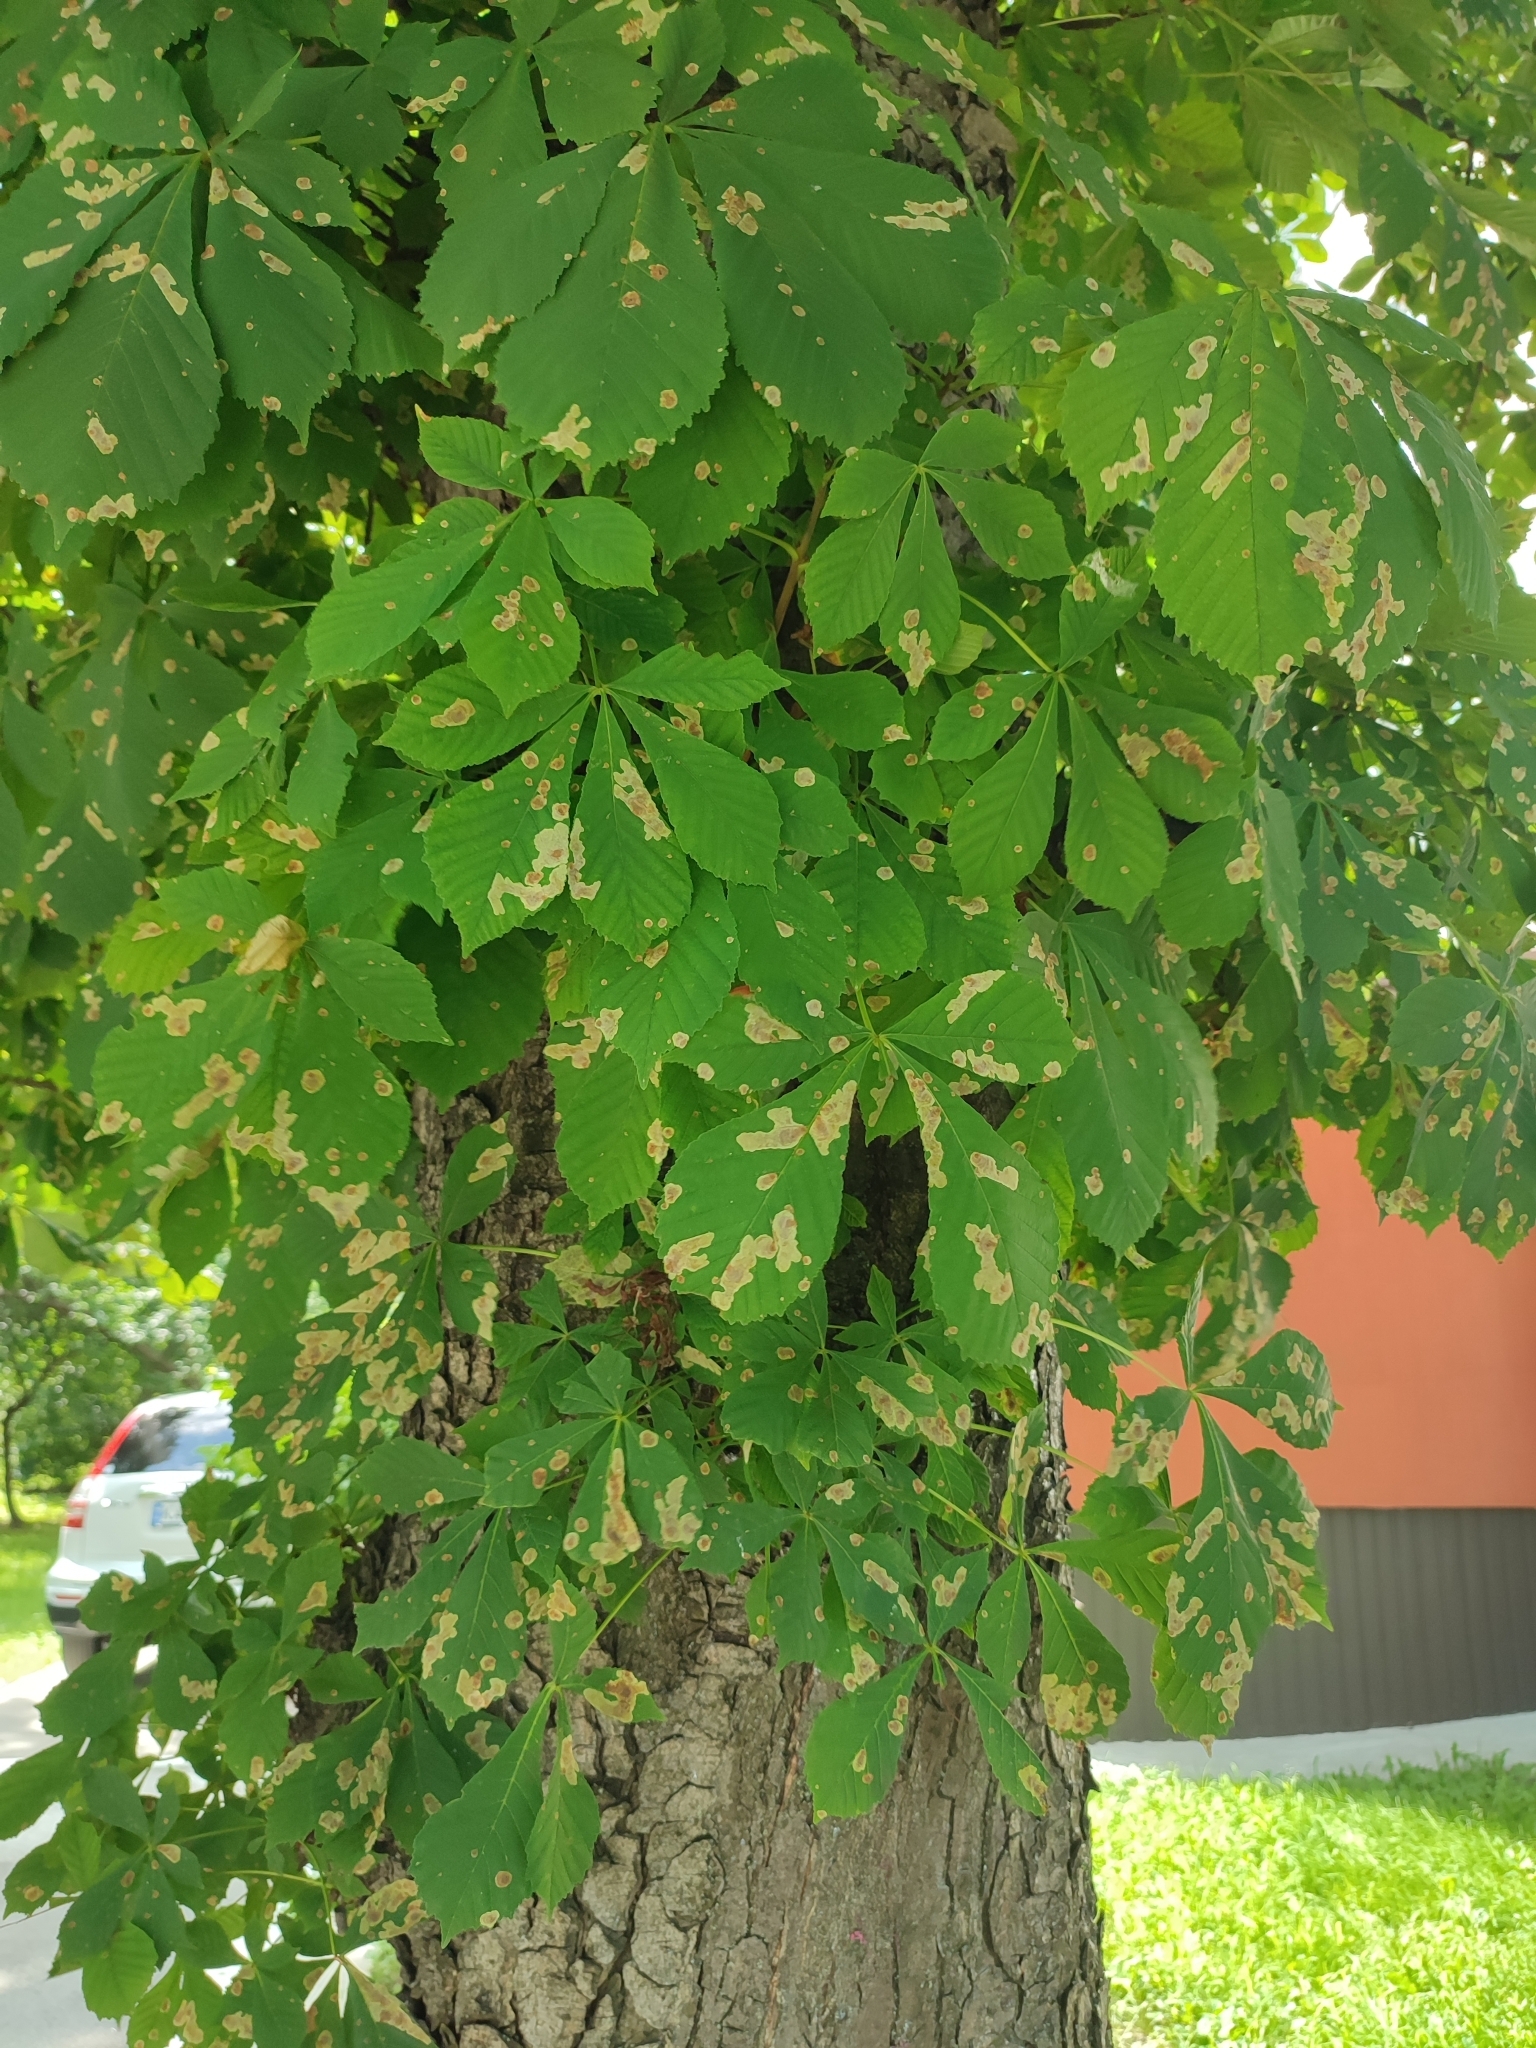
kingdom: Animalia
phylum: Arthropoda
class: Insecta
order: Lepidoptera
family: Gracillariidae
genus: Cameraria
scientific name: Cameraria ohridella
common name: Horse-chestnut leaf-miner
